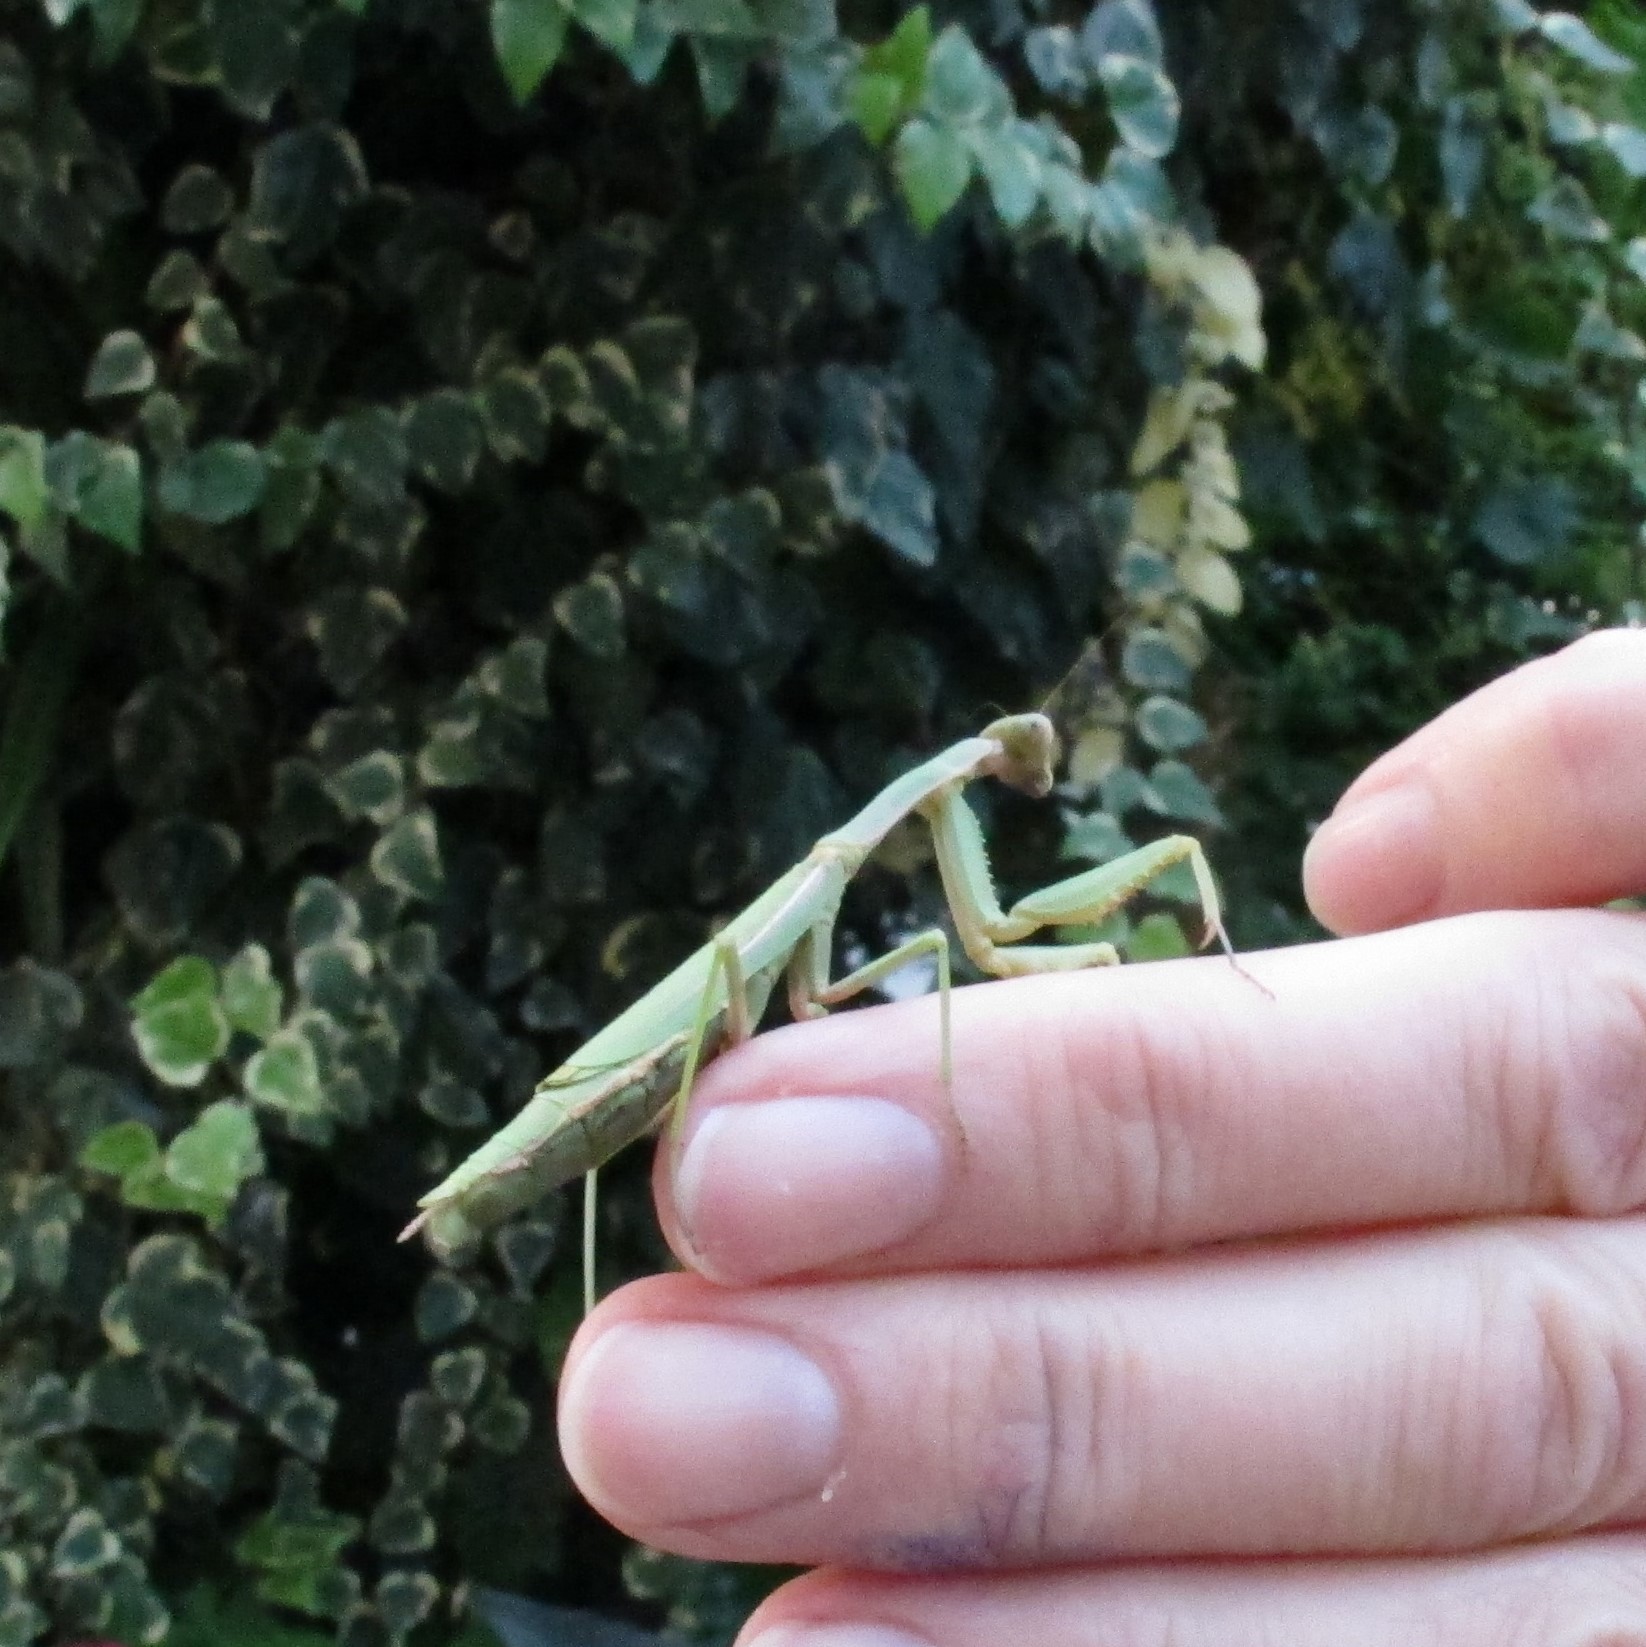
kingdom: Animalia
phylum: Arthropoda
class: Insecta
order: Mantodea
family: Eremiaphilidae
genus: Iris
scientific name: Iris oratoria
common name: Mediterranean mantis
